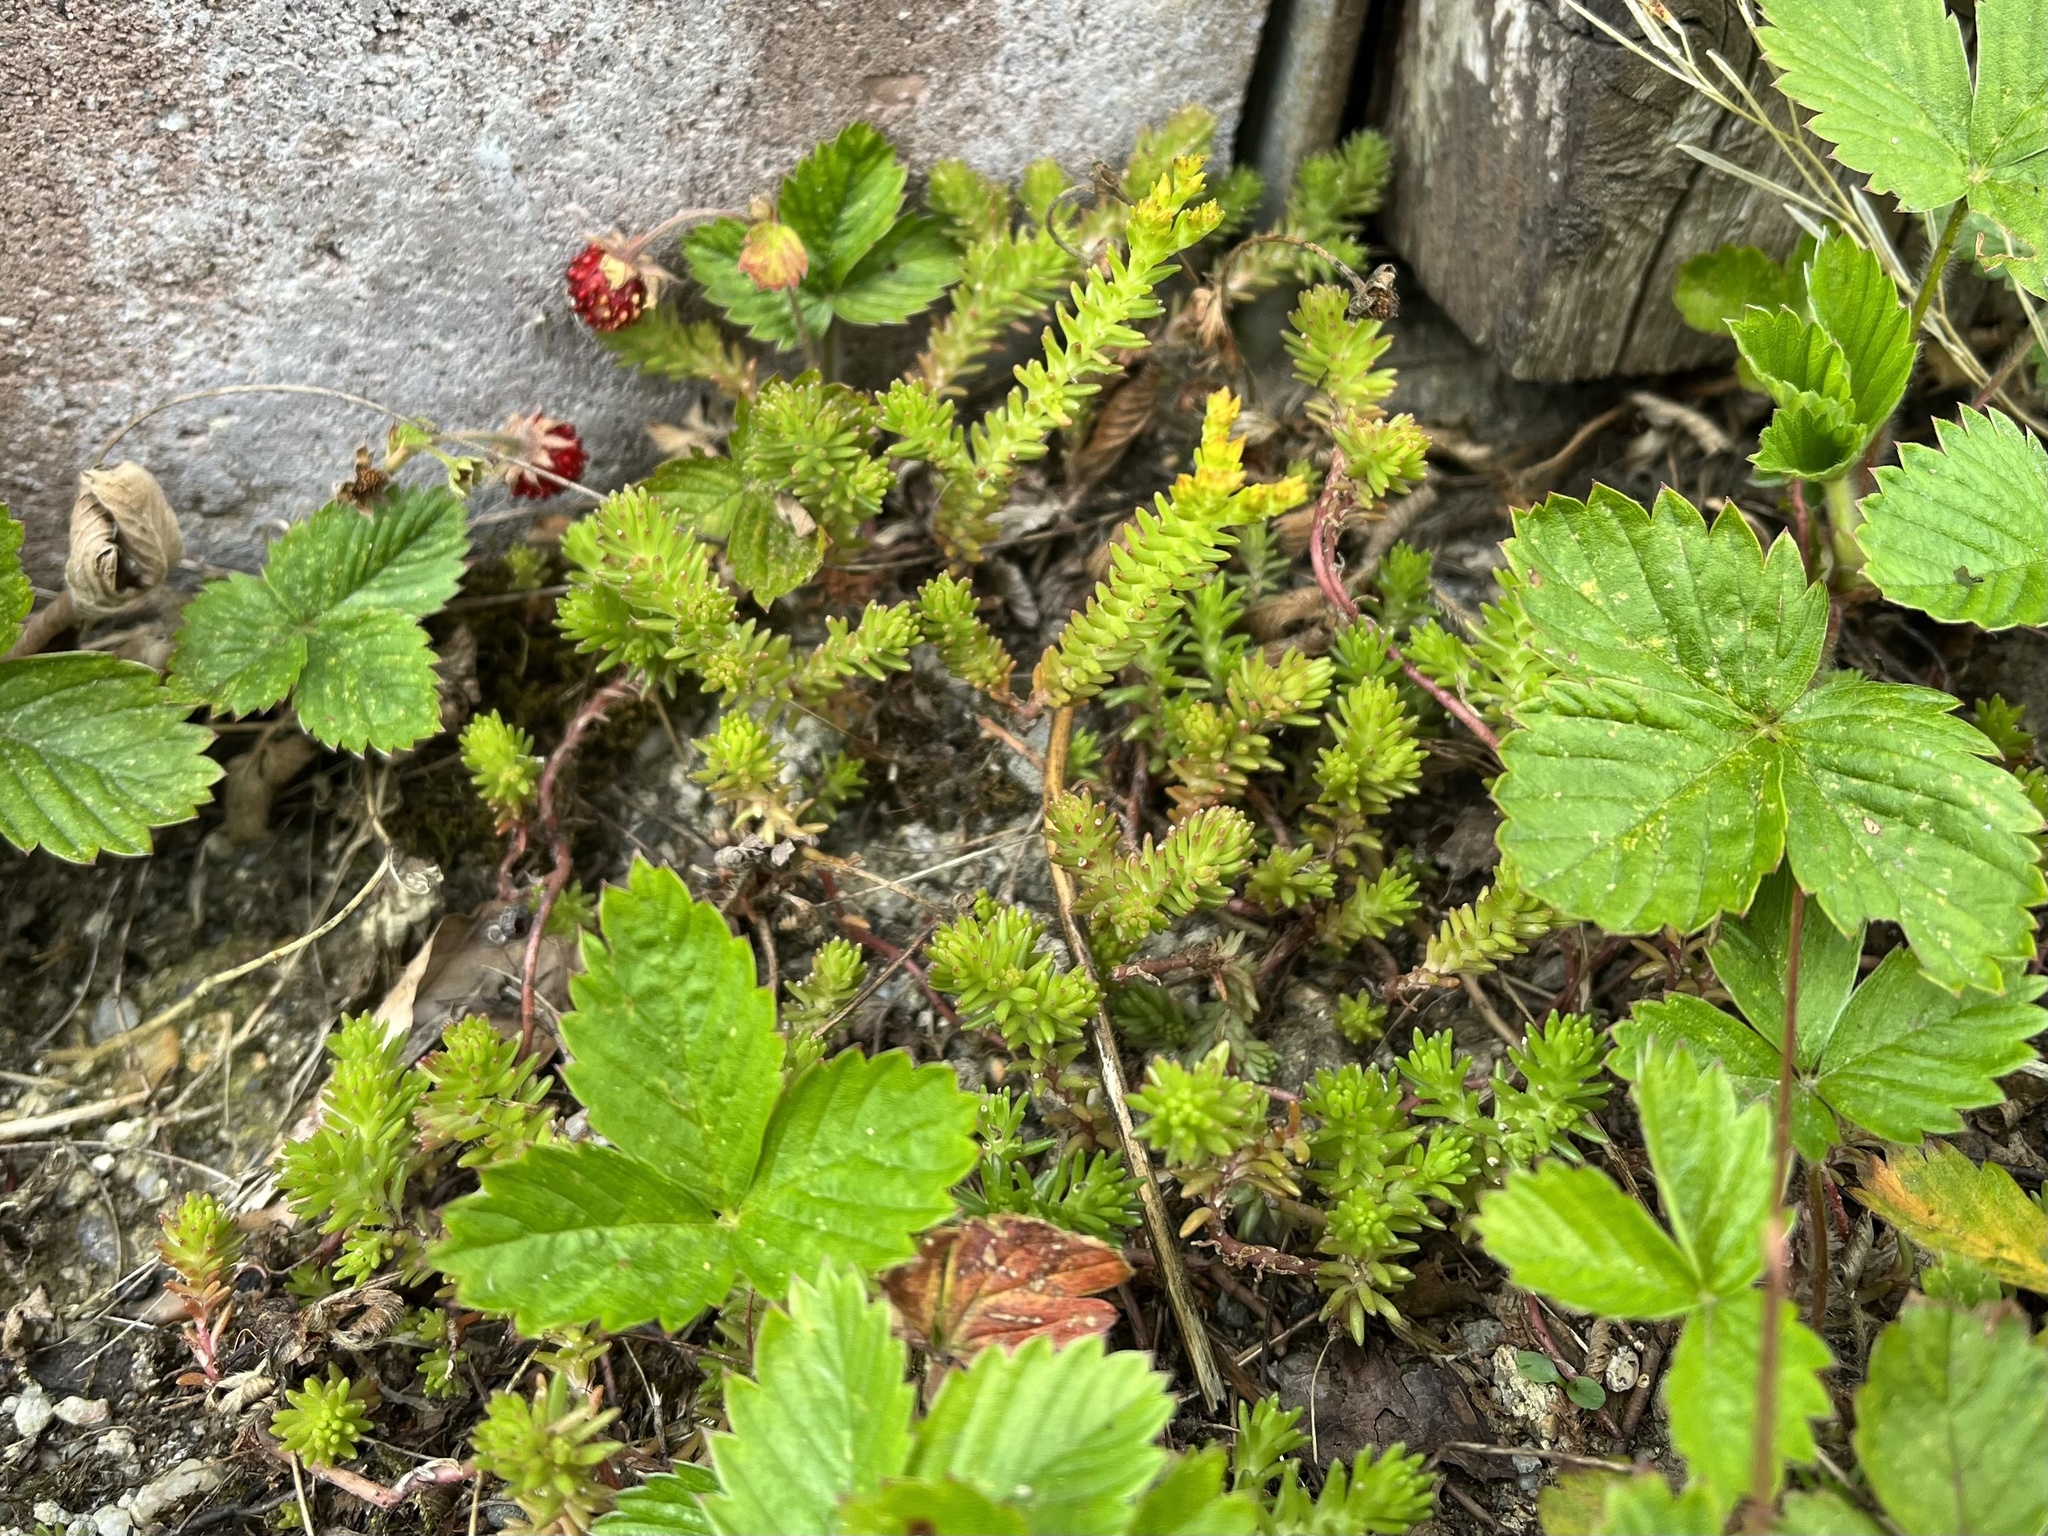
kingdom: Plantae
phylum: Tracheophyta
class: Magnoliopsida
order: Saxifragales
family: Crassulaceae
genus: Sedum
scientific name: Sedum sexangulare
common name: Tasteless stonecrop
